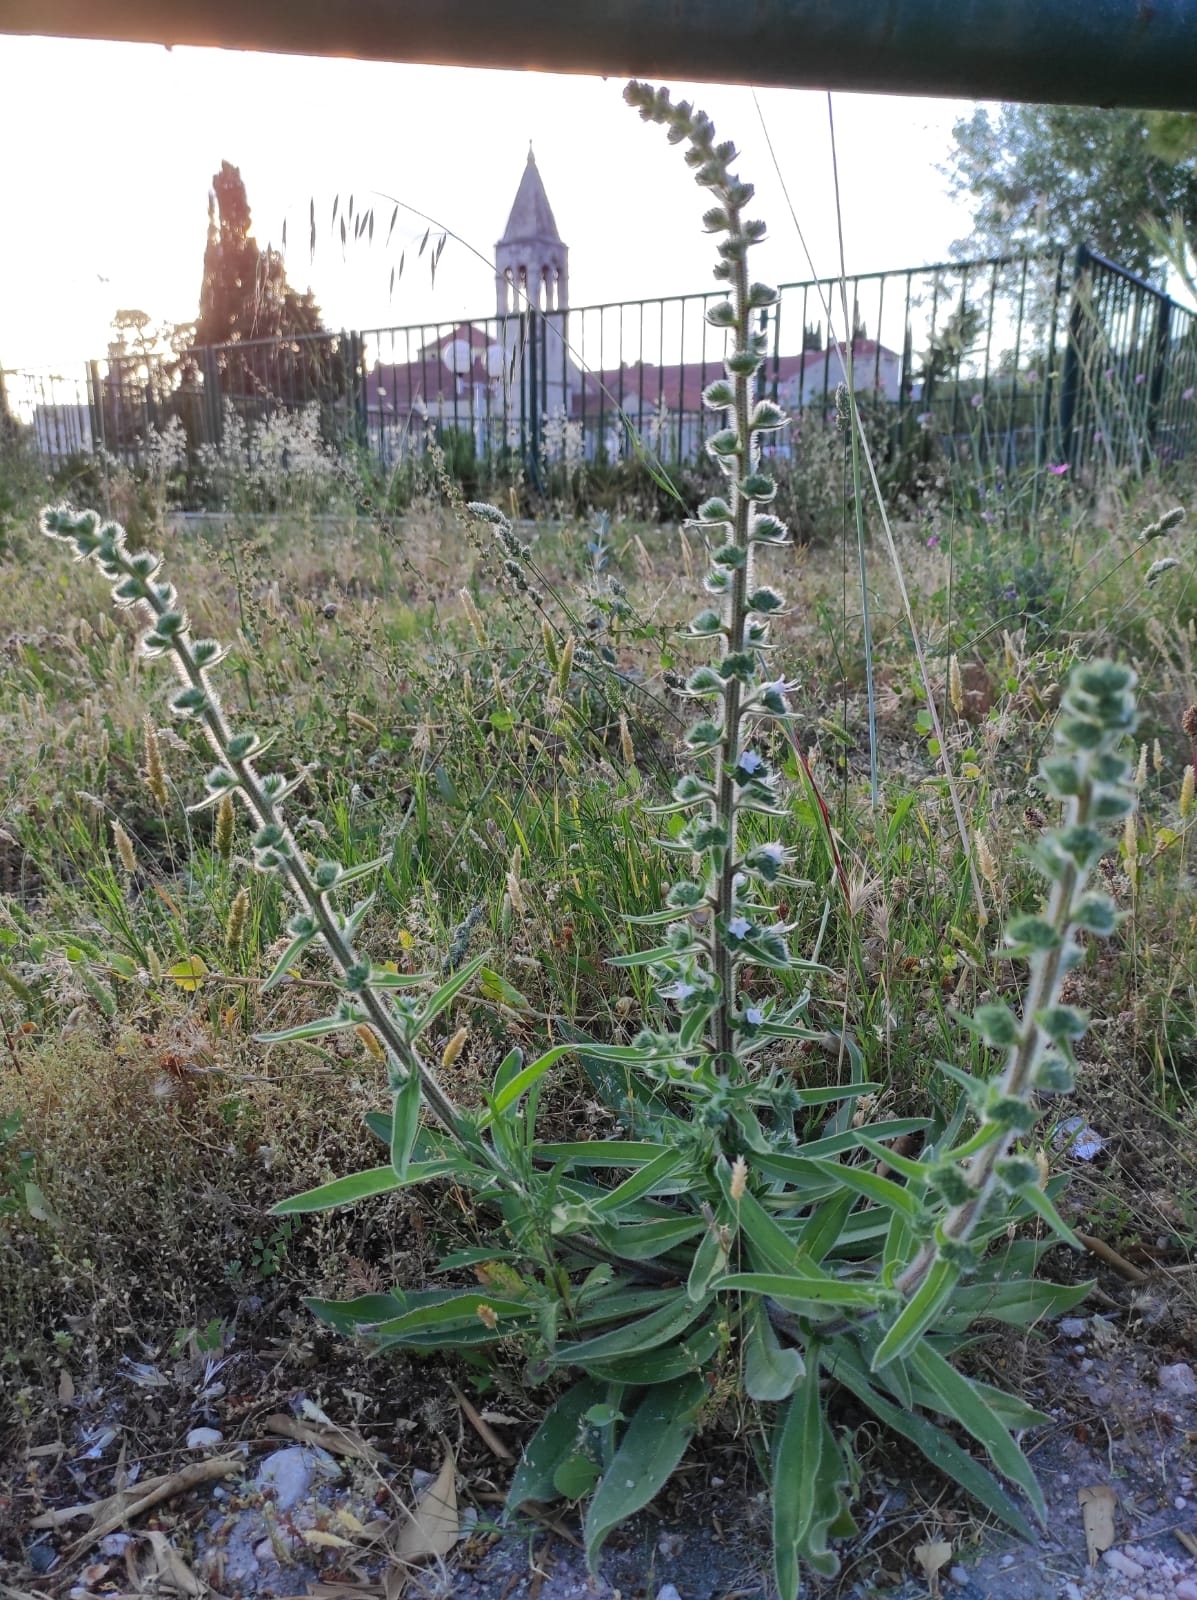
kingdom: Plantae
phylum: Tracheophyta
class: Magnoliopsida
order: Boraginales
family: Boraginaceae
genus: Echium
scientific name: Echium italicum
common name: Italian viper's bugloss
